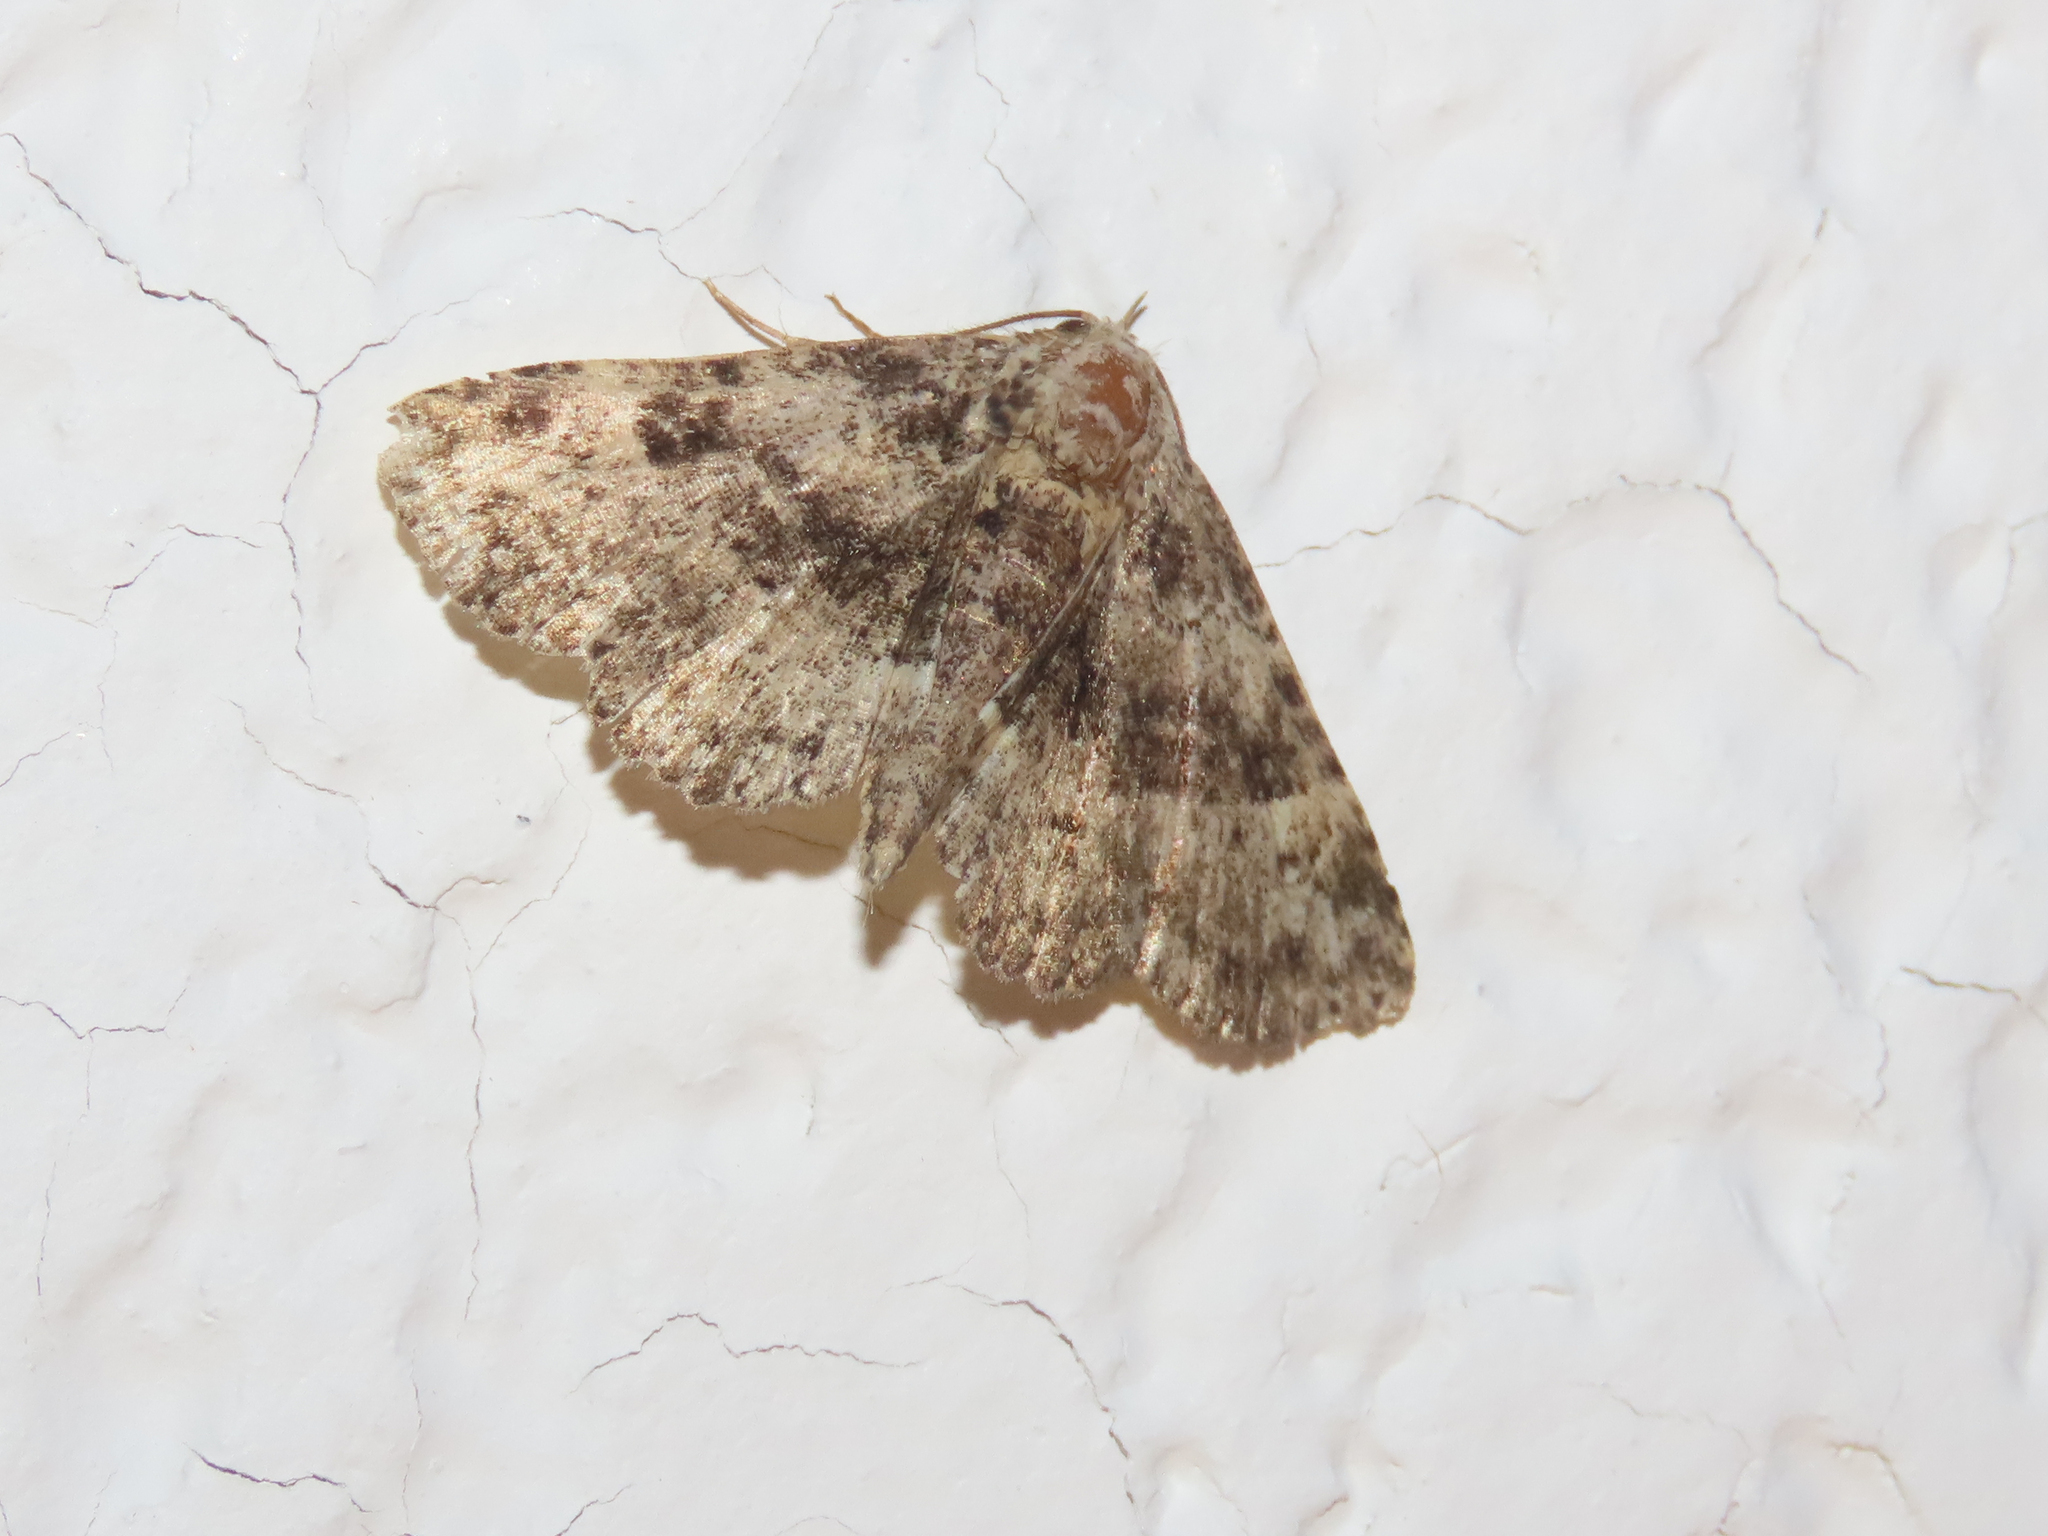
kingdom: Animalia
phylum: Arthropoda
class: Insecta
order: Lepidoptera
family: Erebidae
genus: Metalectra
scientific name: Metalectra discalis
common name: Common fungus moth
